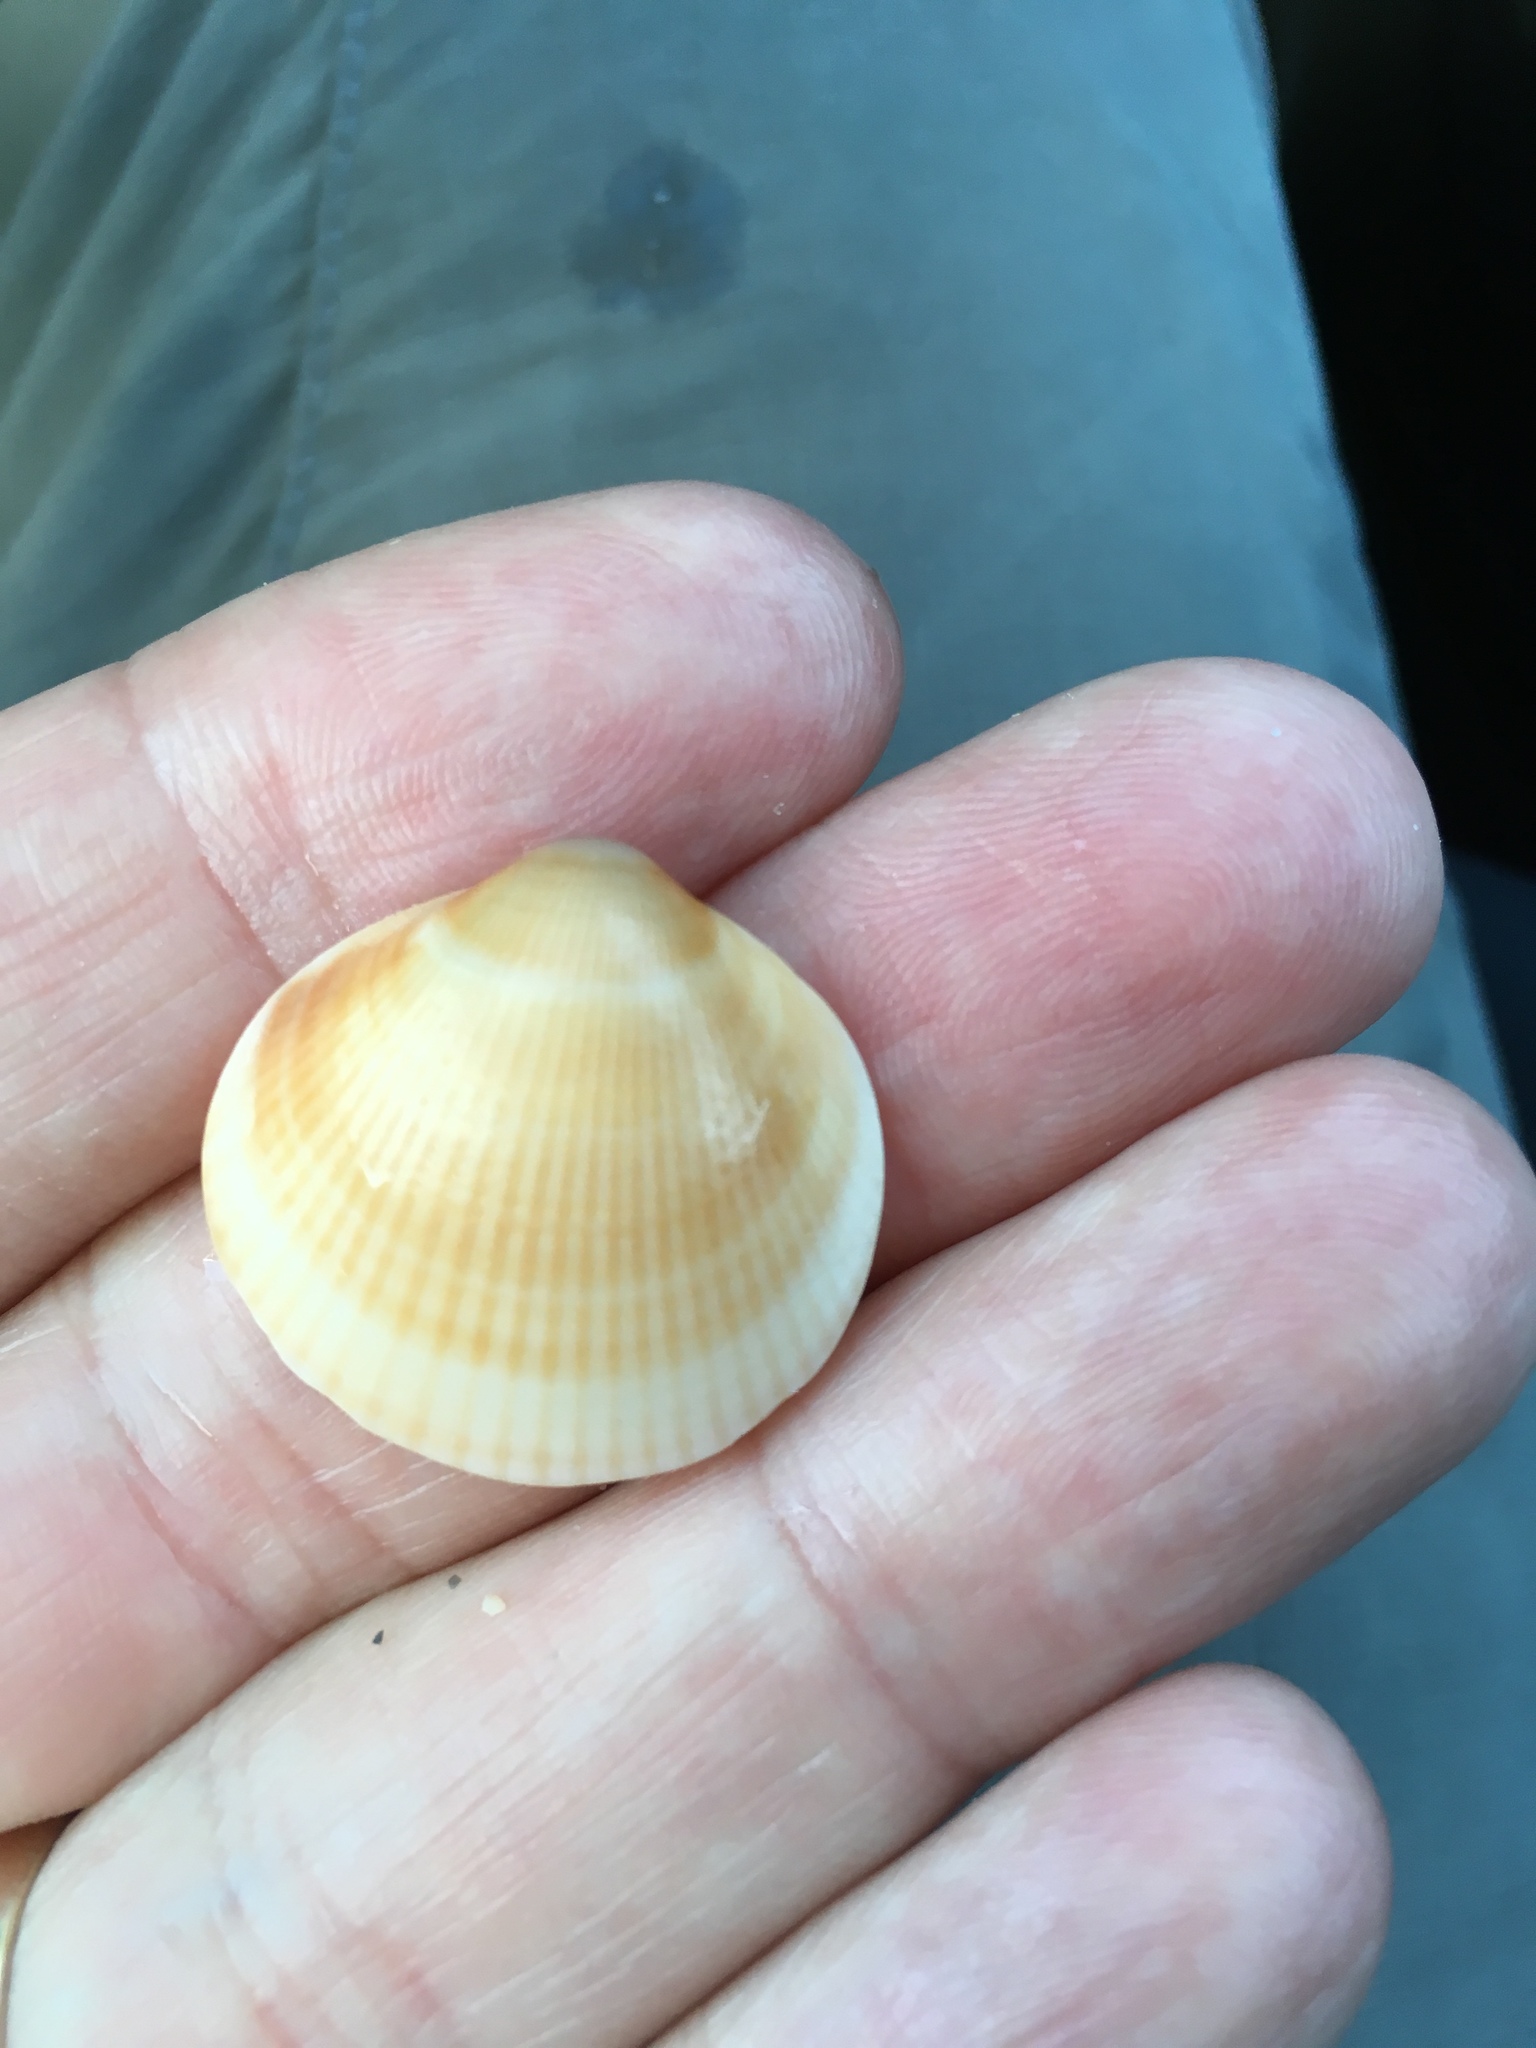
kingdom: Animalia
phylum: Mollusca
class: Bivalvia
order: Arcida
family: Glycymerididae
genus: Glycymeris
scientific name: Glycymeris spectralis
